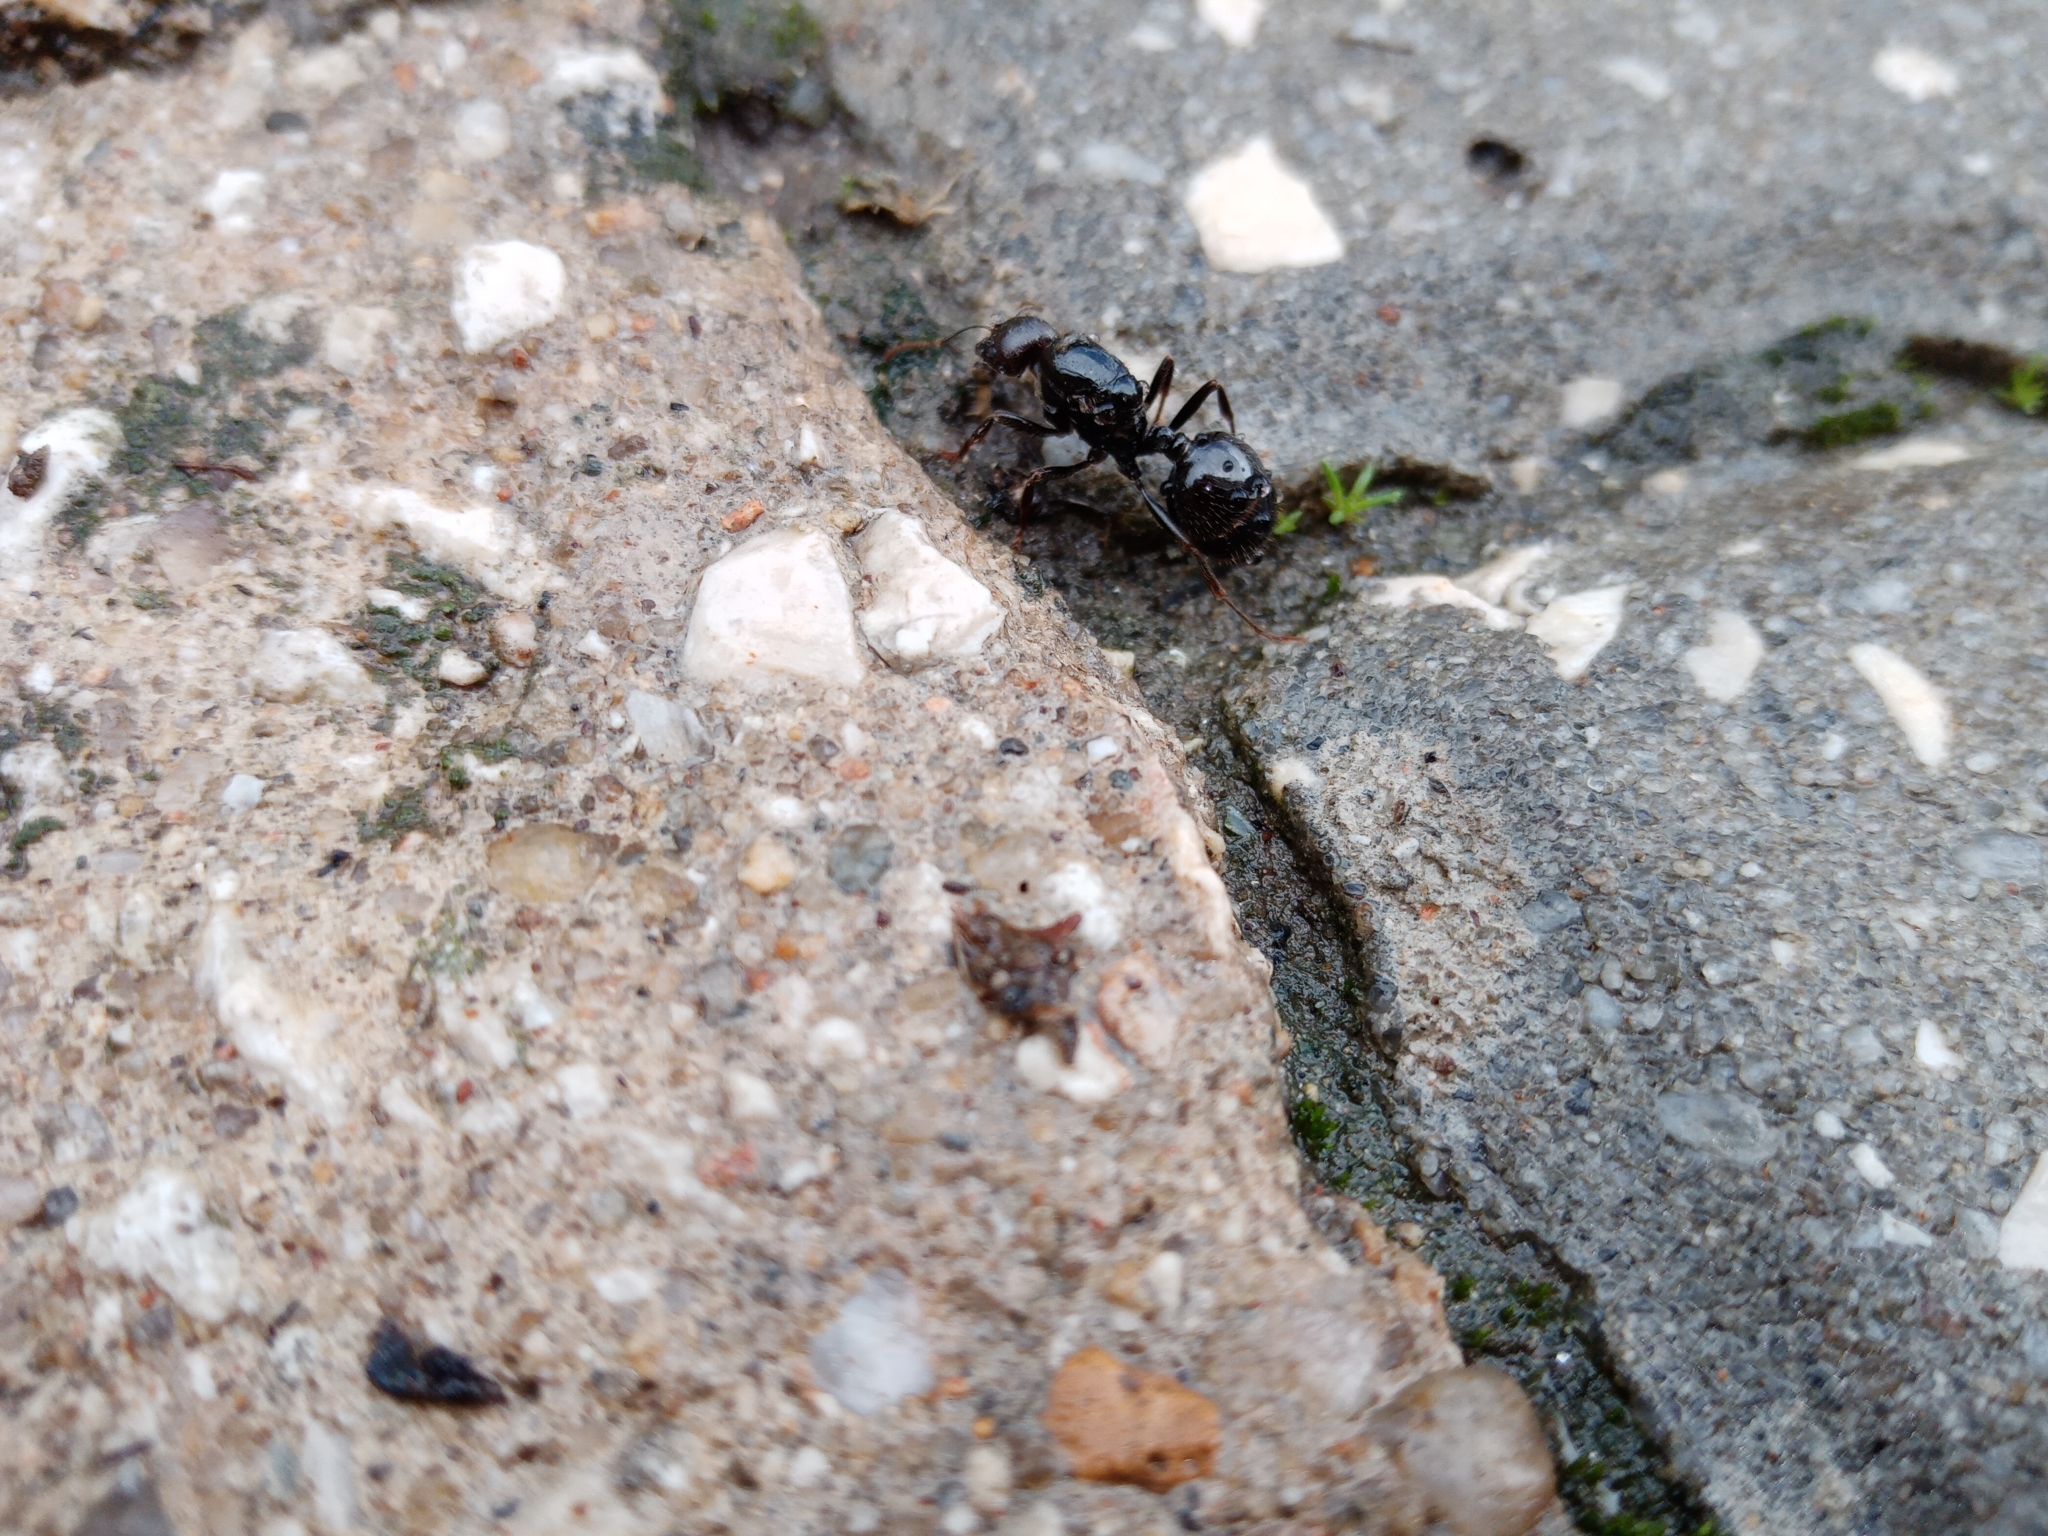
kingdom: Animalia
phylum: Arthropoda
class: Insecta
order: Hymenoptera
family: Formicidae
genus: Messor
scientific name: Messor barbarus
